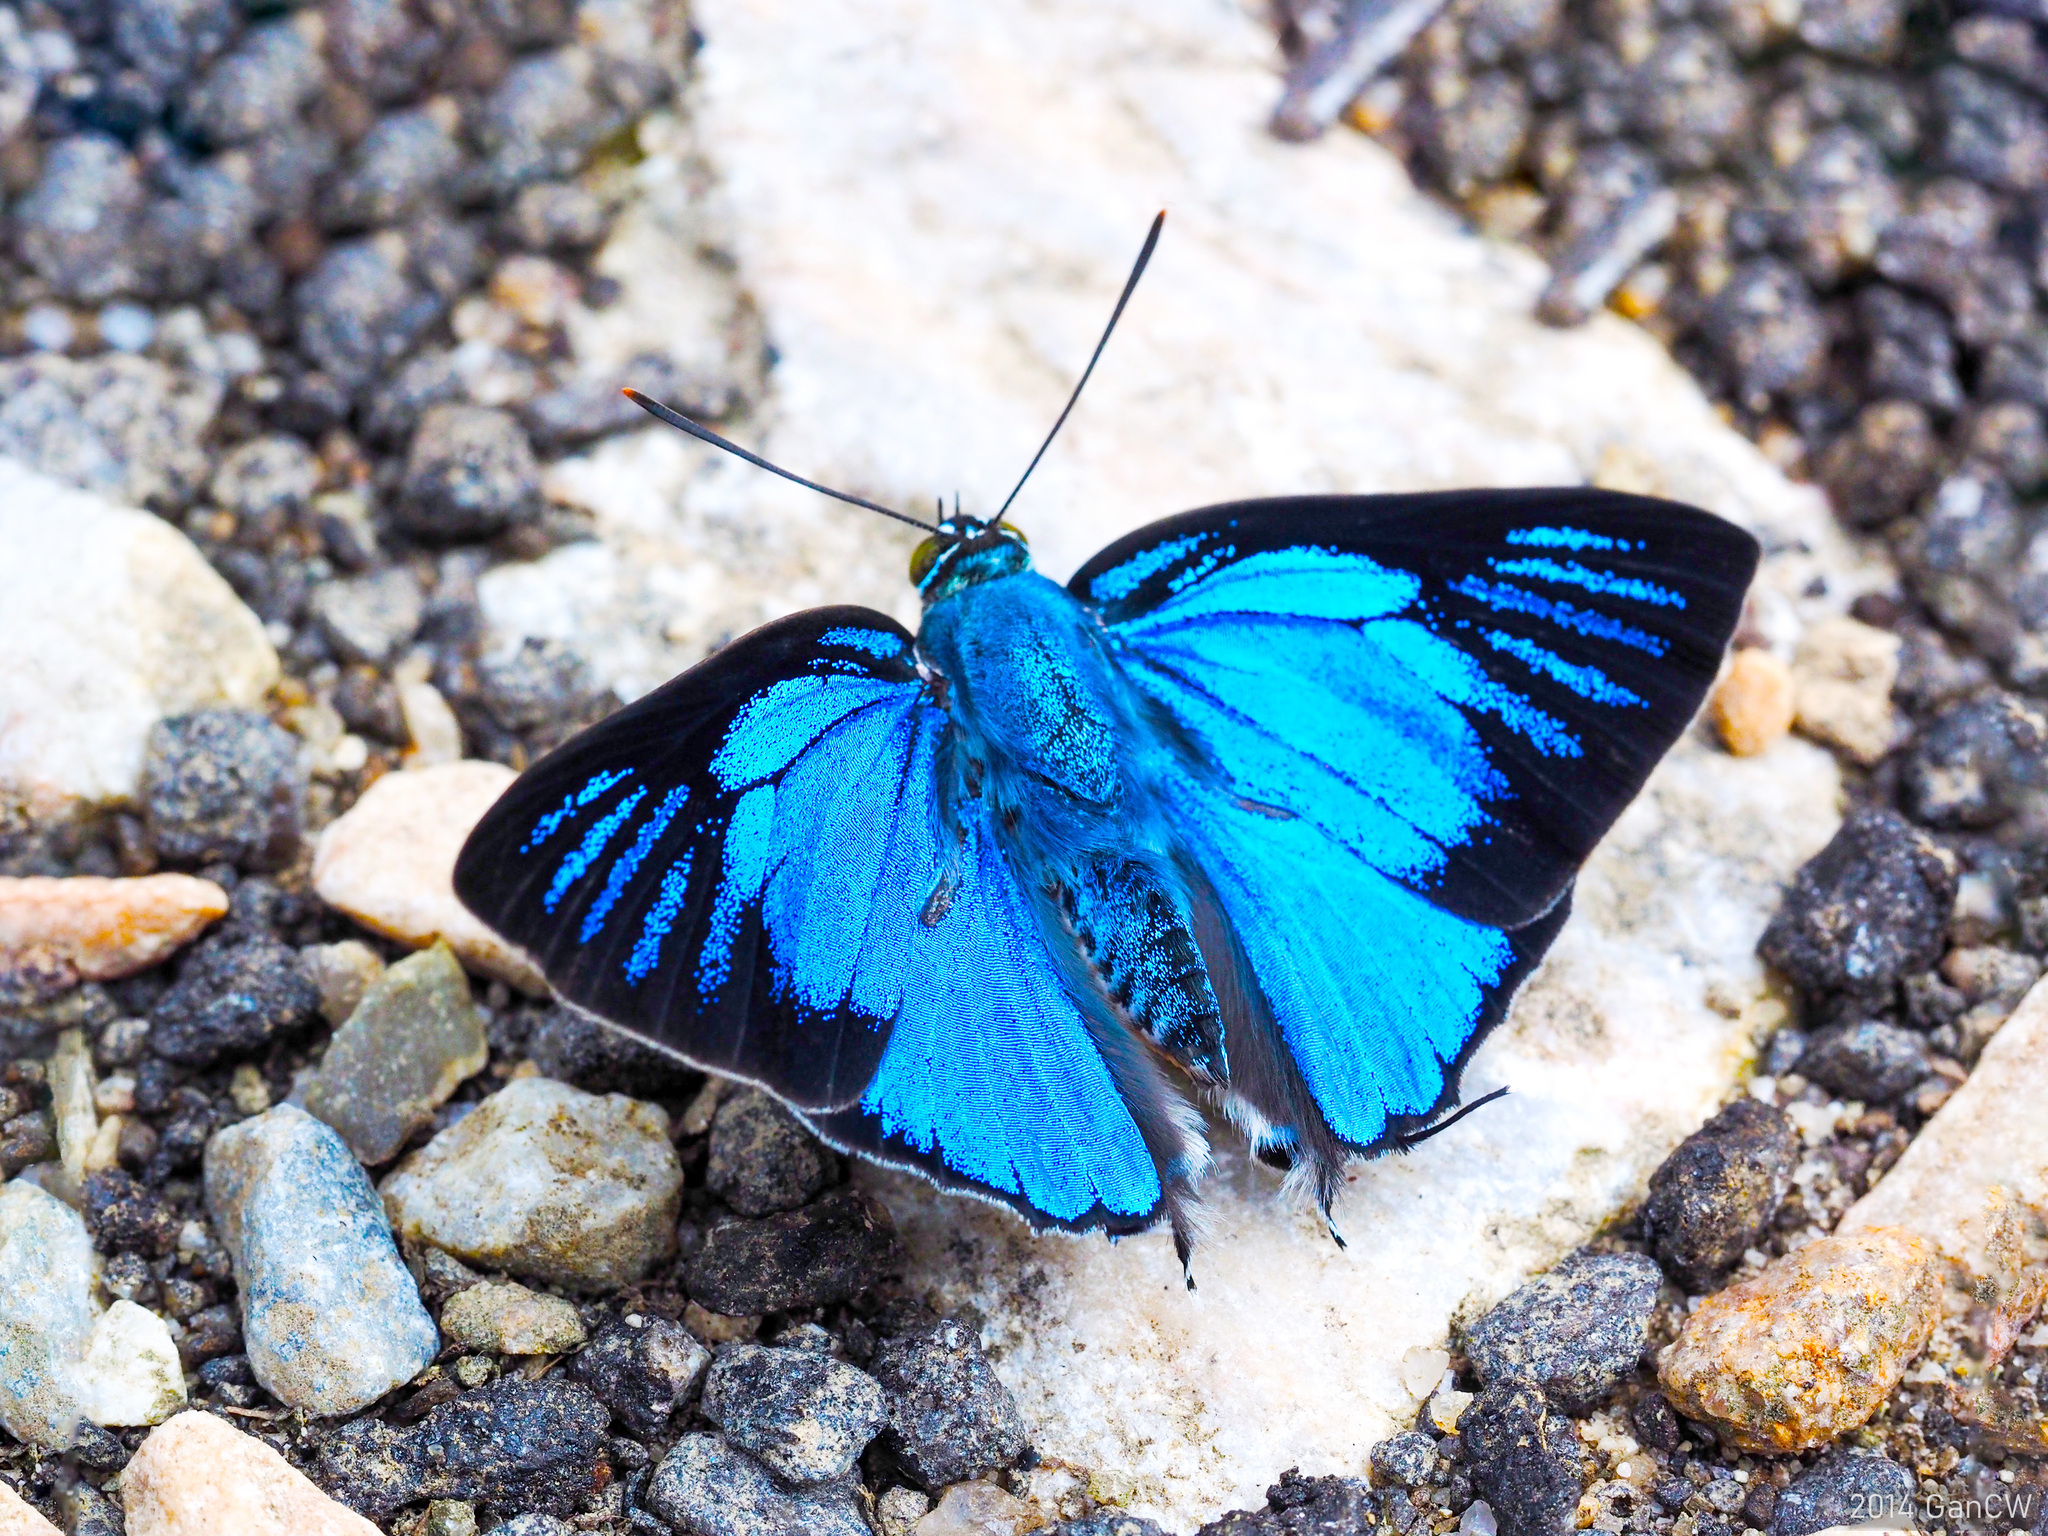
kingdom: Animalia
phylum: Arthropoda
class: Insecta
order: Lepidoptera
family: Lycaenidae
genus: Ancema
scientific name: Ancema blanka
